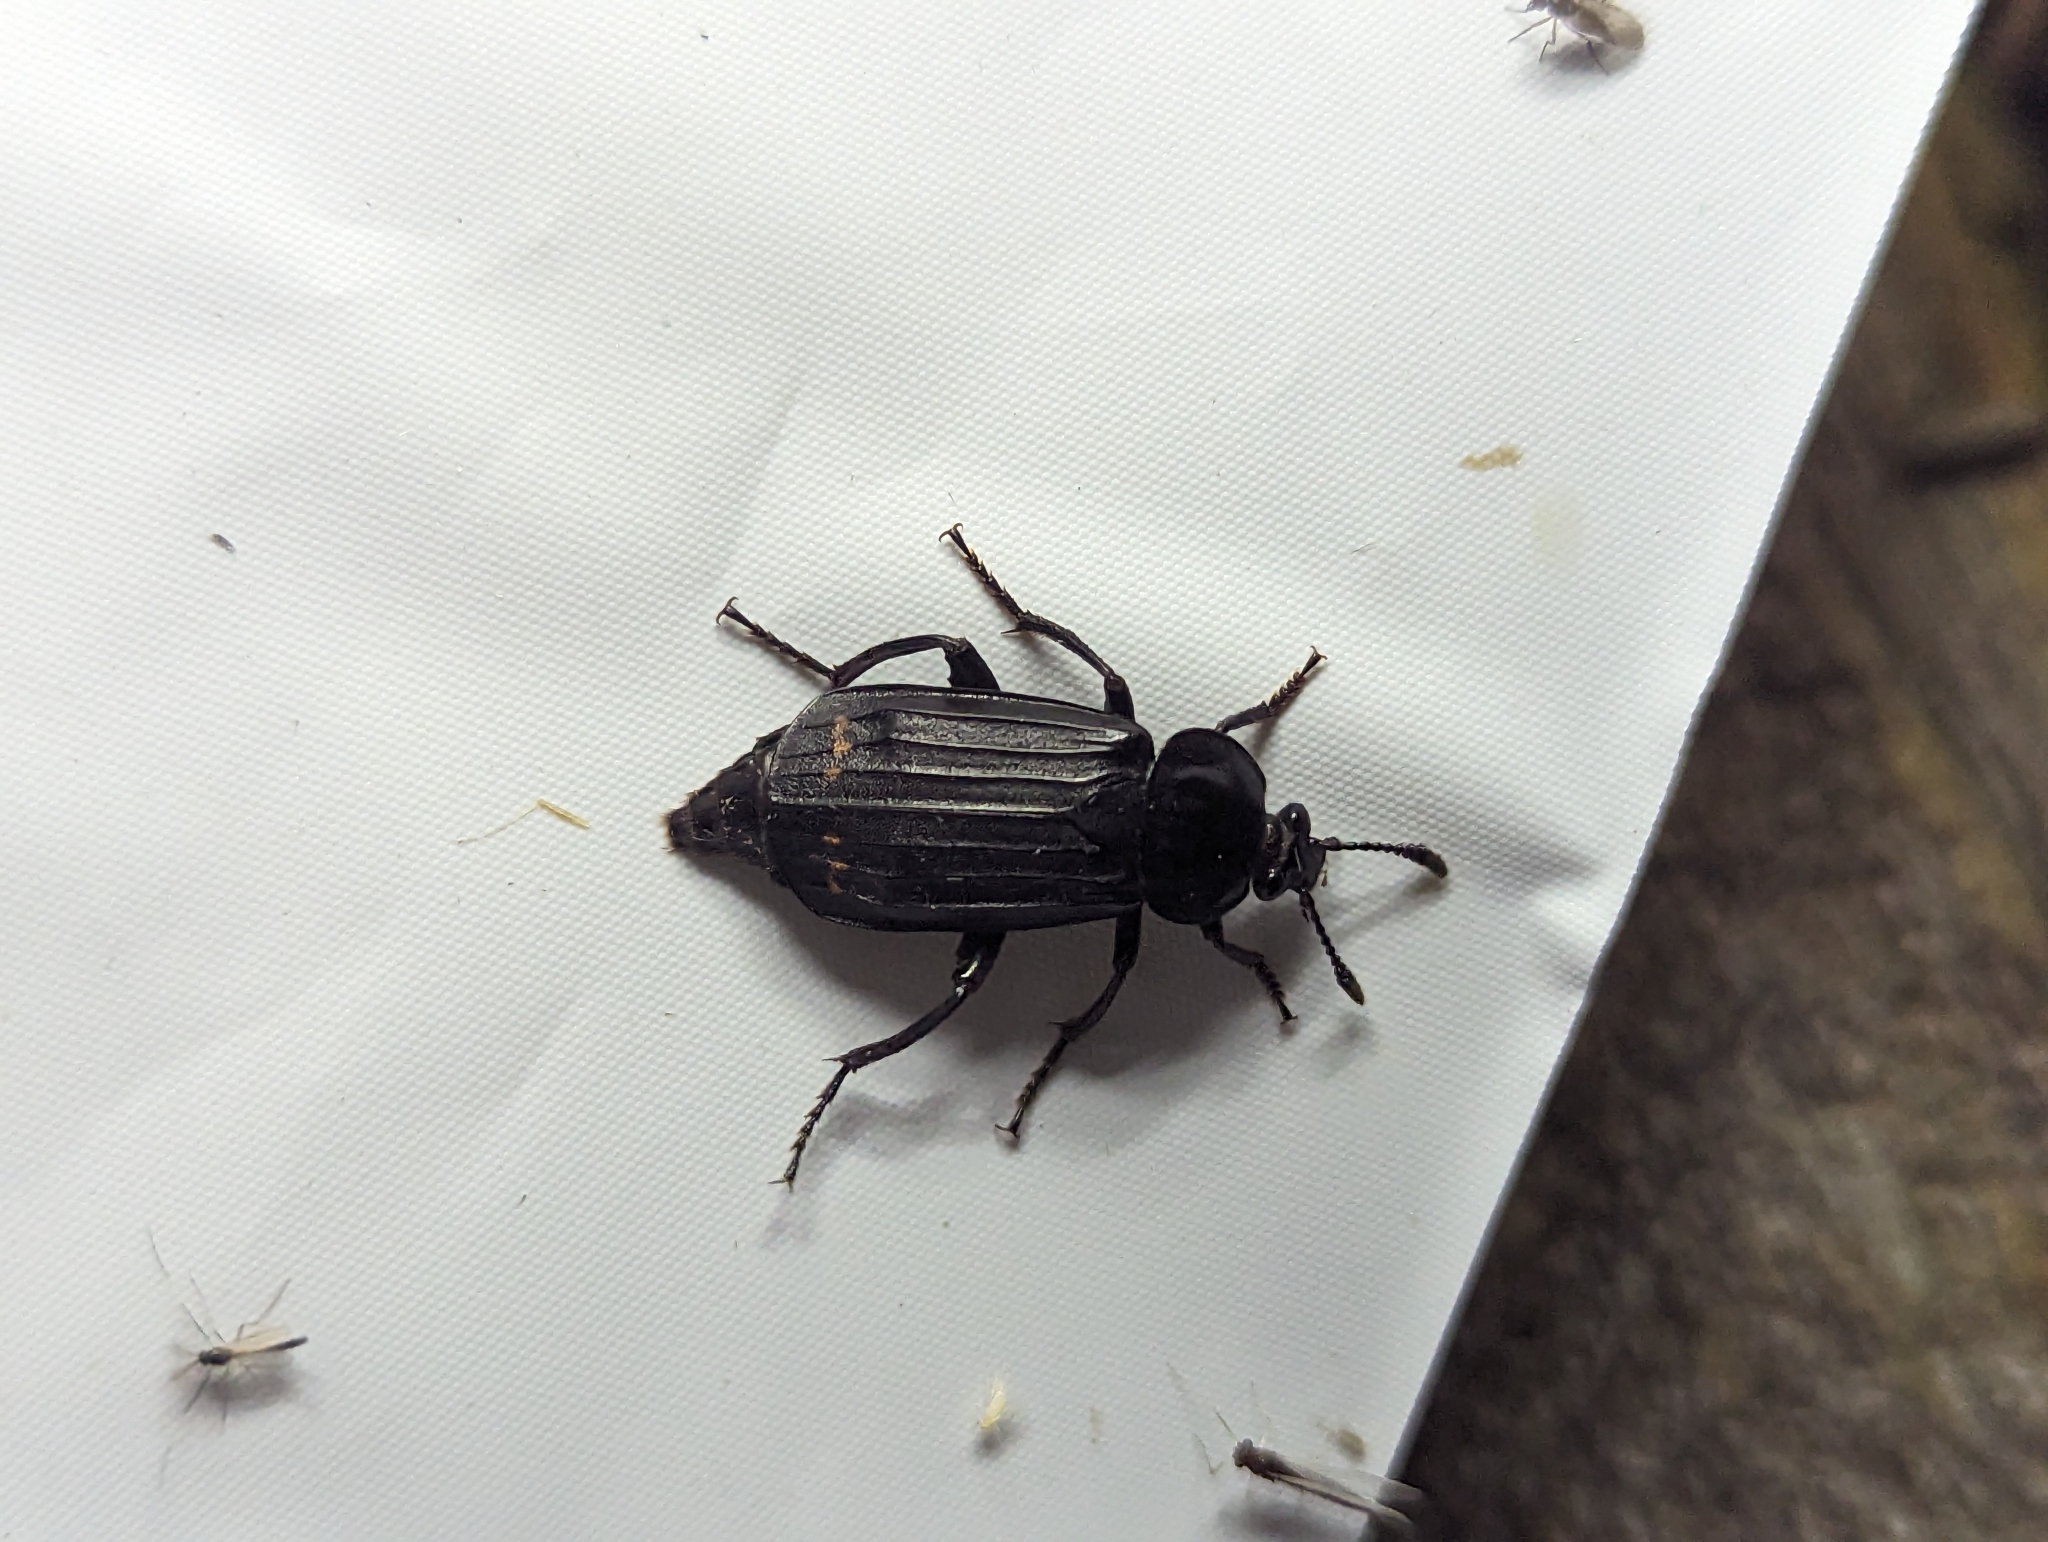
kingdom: Animalia
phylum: Arthropoda
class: Insecta
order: Coleoptera
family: Staphylinidae
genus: Necrodes
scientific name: Necrodes surinamensis
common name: Red-lined carrion beetle
